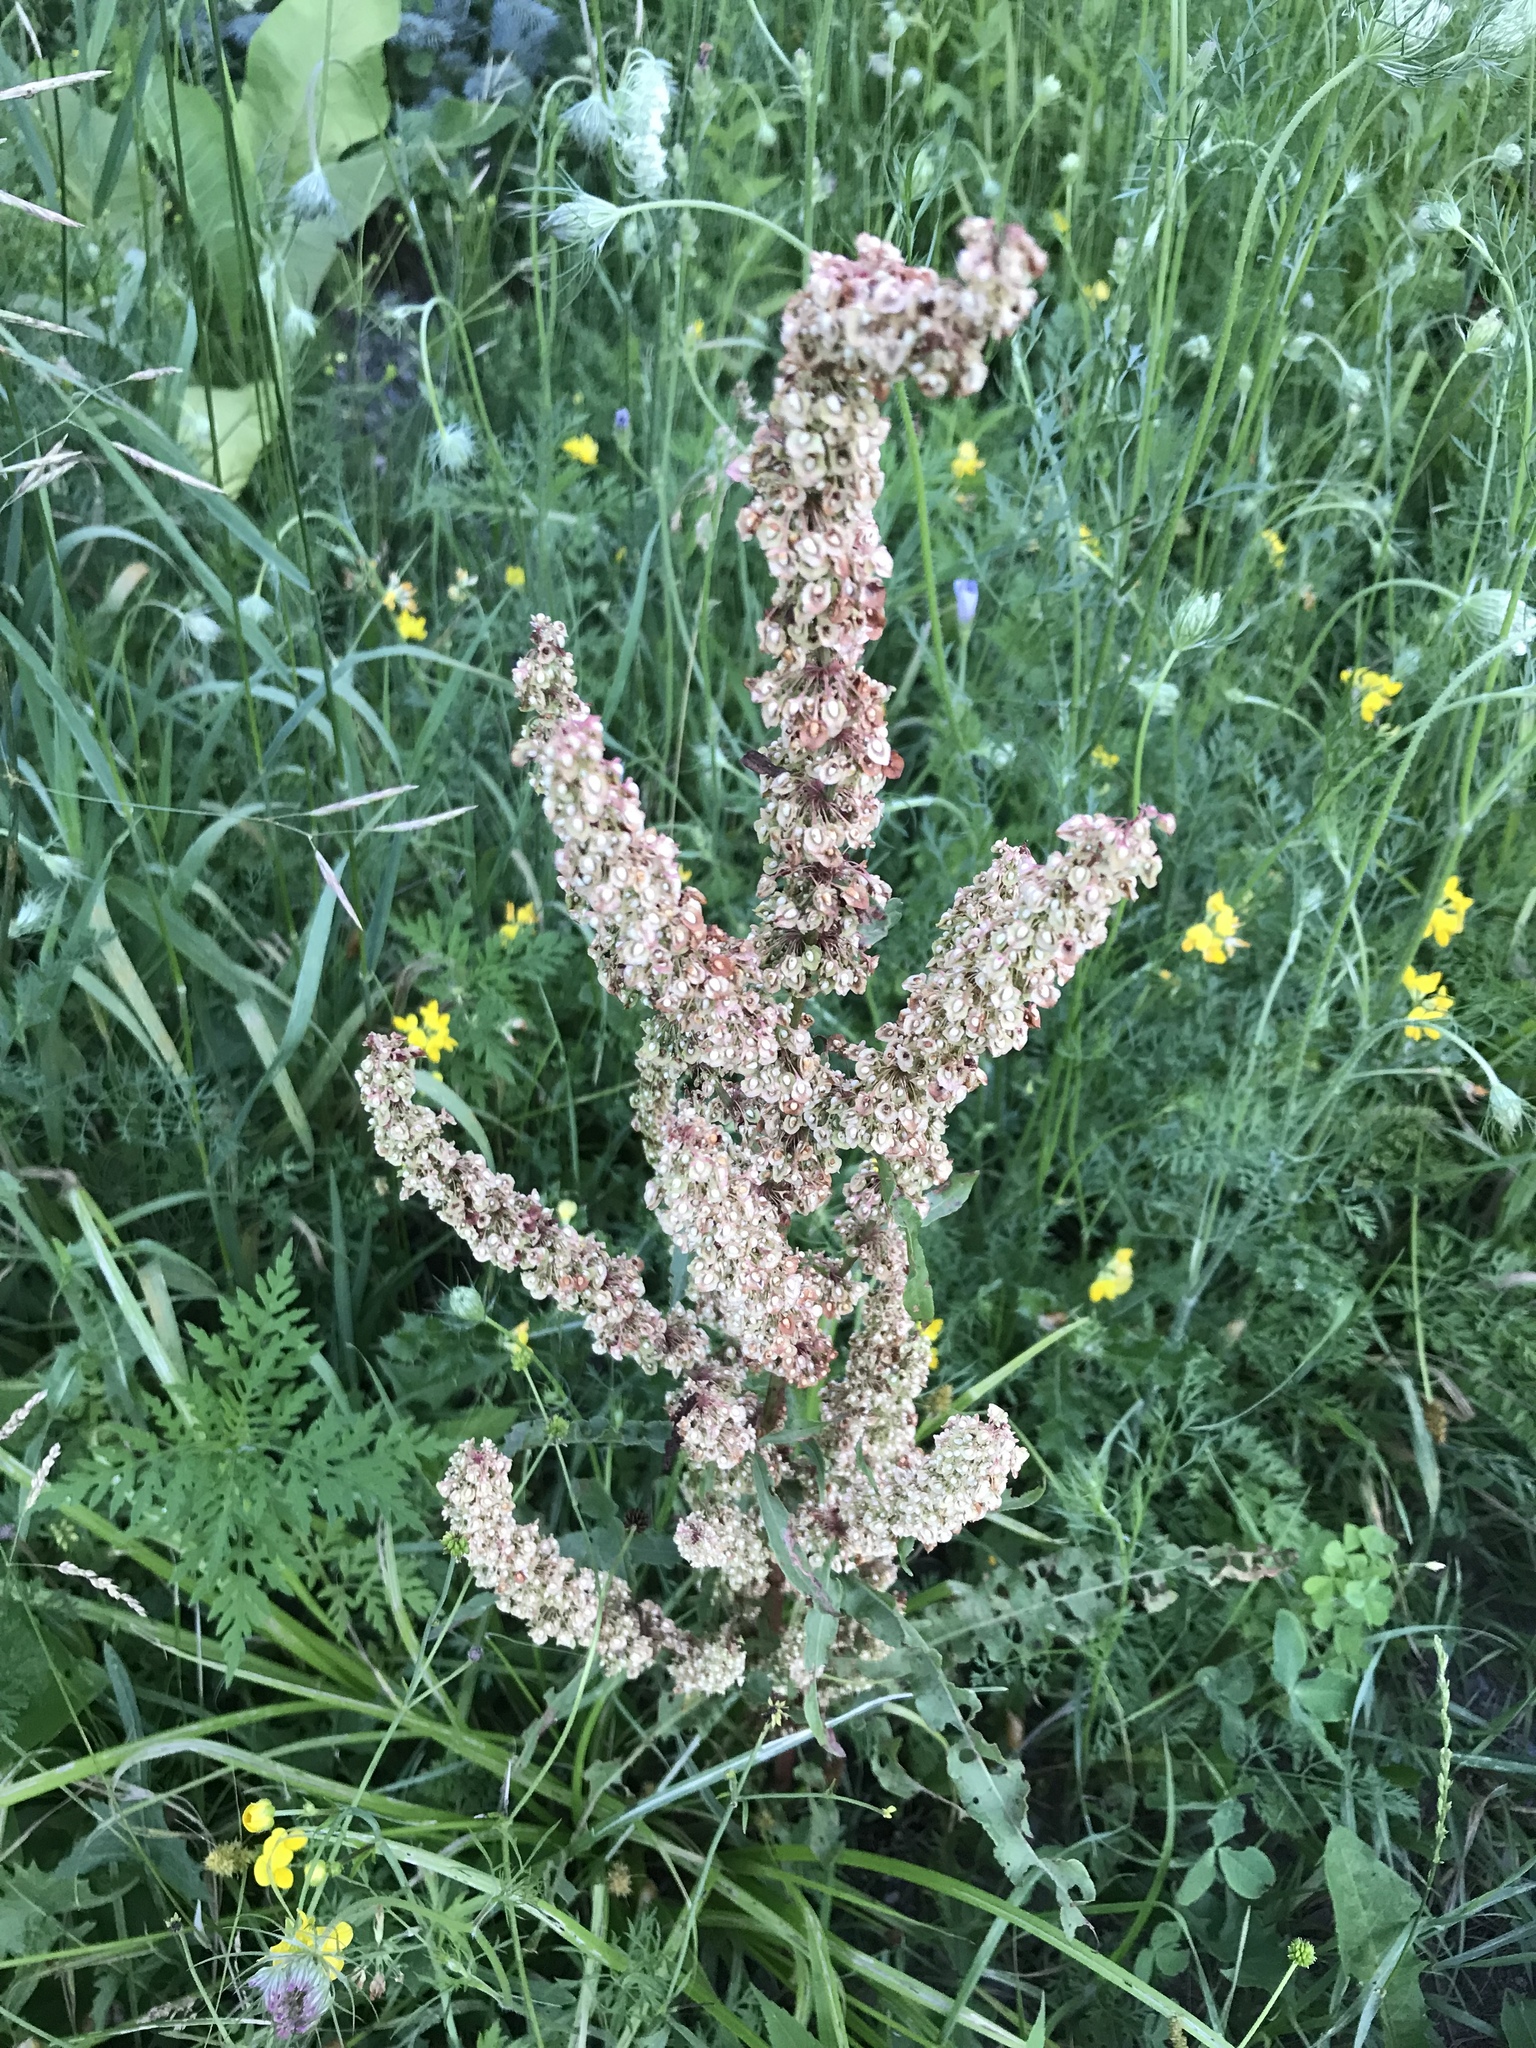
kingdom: Plantae
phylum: Tracheophyta
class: Magnoliopsida
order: Caryophyllales
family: Polygonaceae
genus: Rumex
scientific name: Rumex crispus
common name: Curled dock
